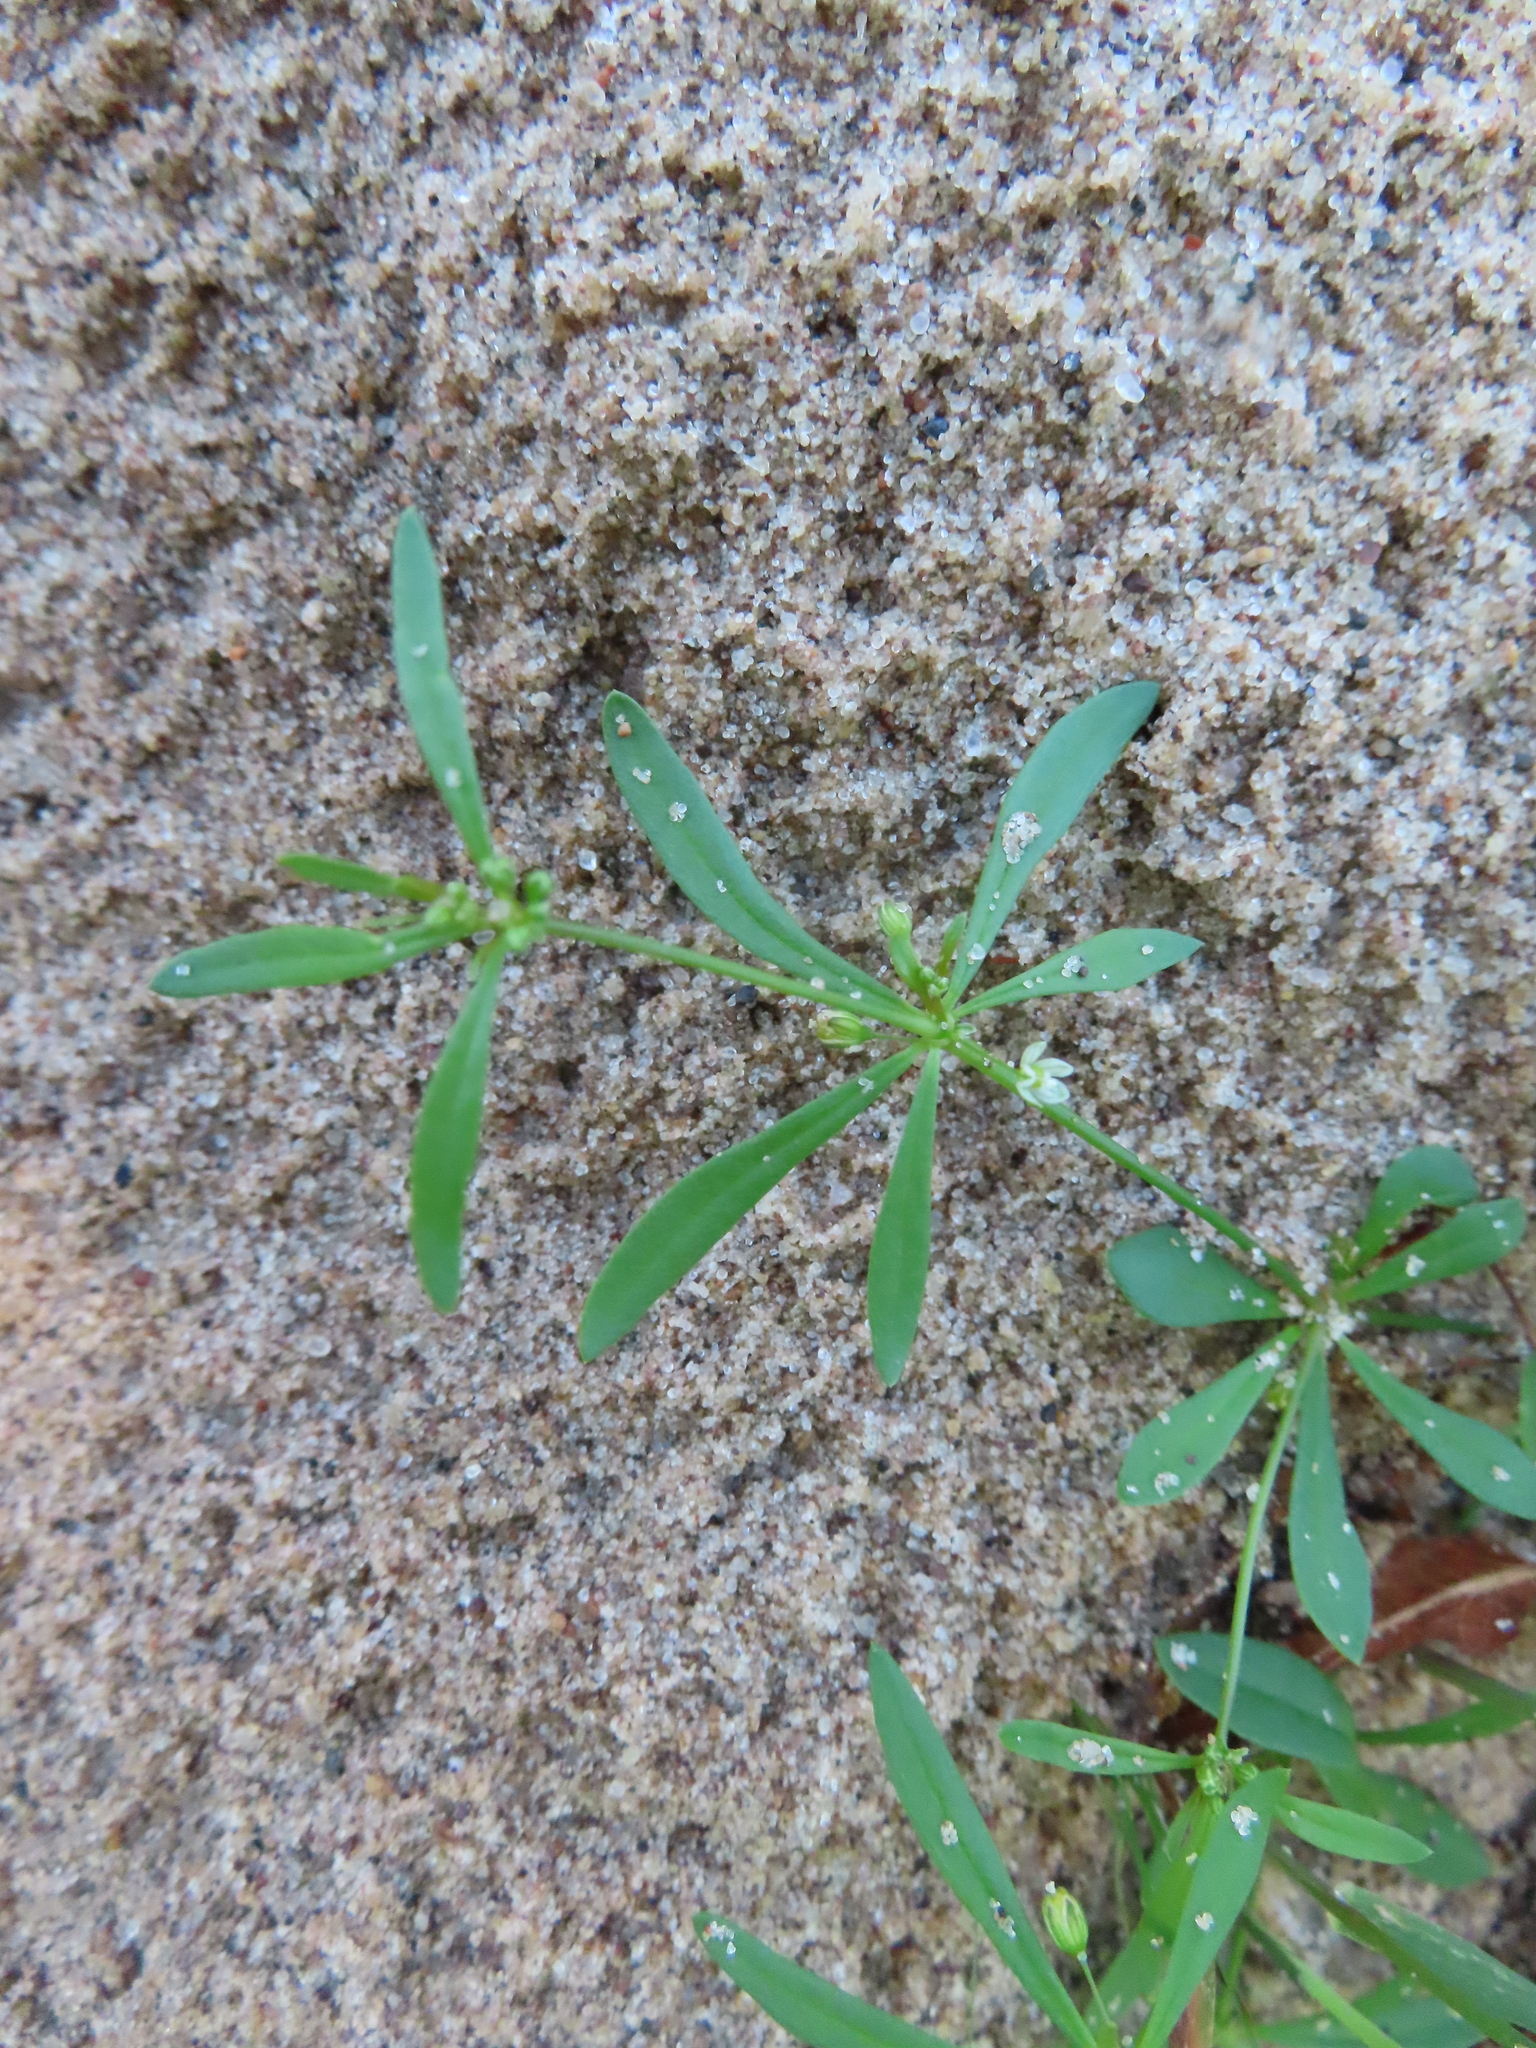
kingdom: Plantae
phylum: Tracheophyta
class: Magnoliopsida
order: Caryophyllales
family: Molluginaceae
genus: Mollugo
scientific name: Mollugo verticillata
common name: Green carpetweed
